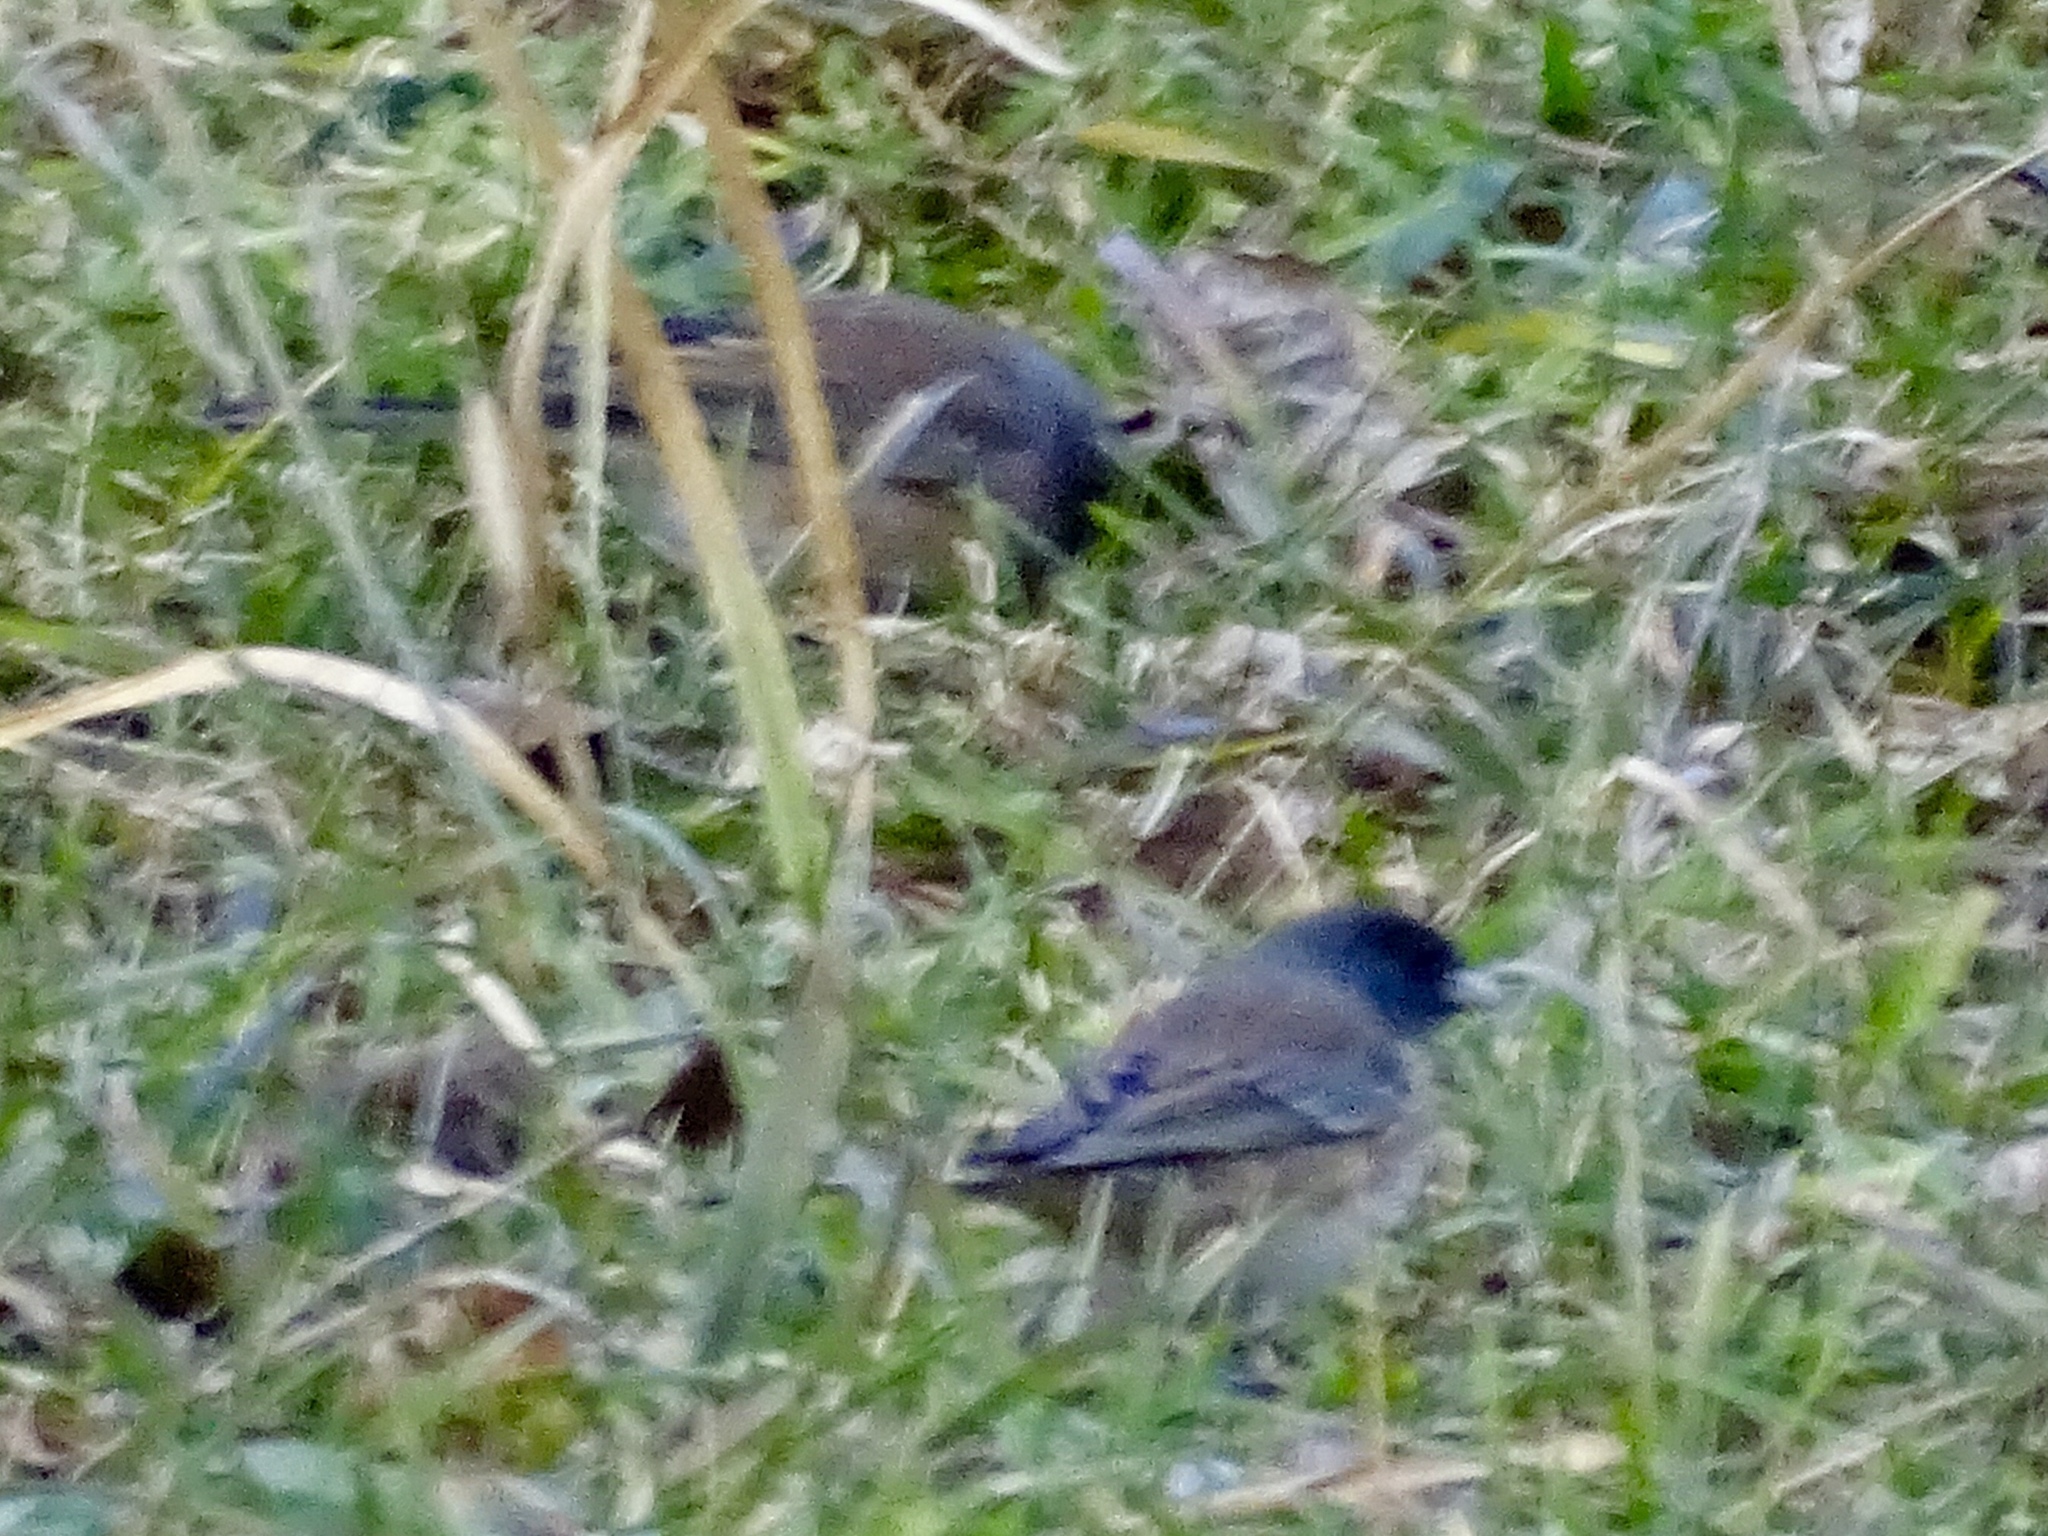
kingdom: Animalia
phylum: Chordata
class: Aves
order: Passeriformes
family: Passerellidae
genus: Junco
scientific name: Junco hyemalis
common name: Dark-eyed junco
